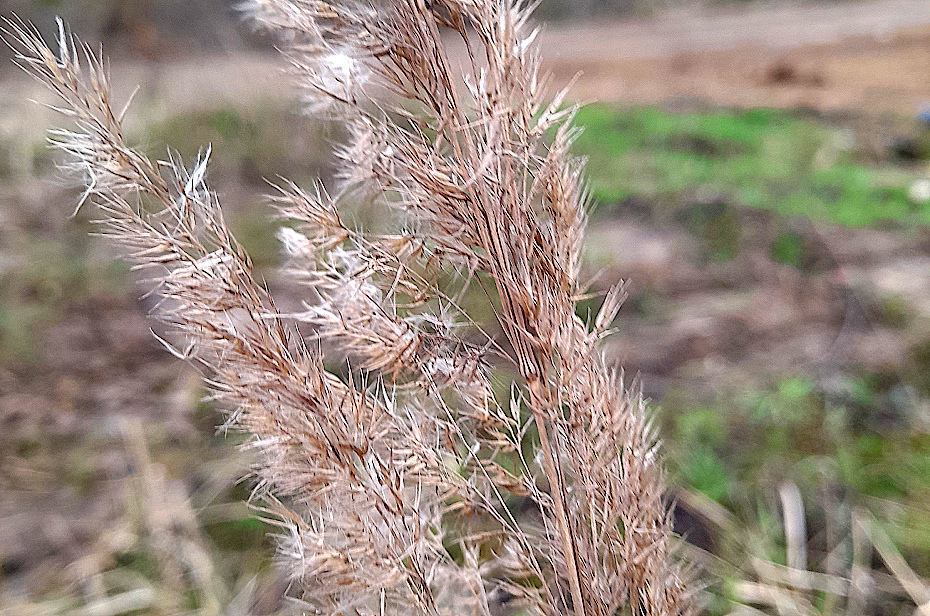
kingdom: Plantae
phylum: Tracheophyta
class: Liliopsida
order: Poales
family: Poaceae
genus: Calamagrostis
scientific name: Calamagrostis epigejos
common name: Wood small-reed
